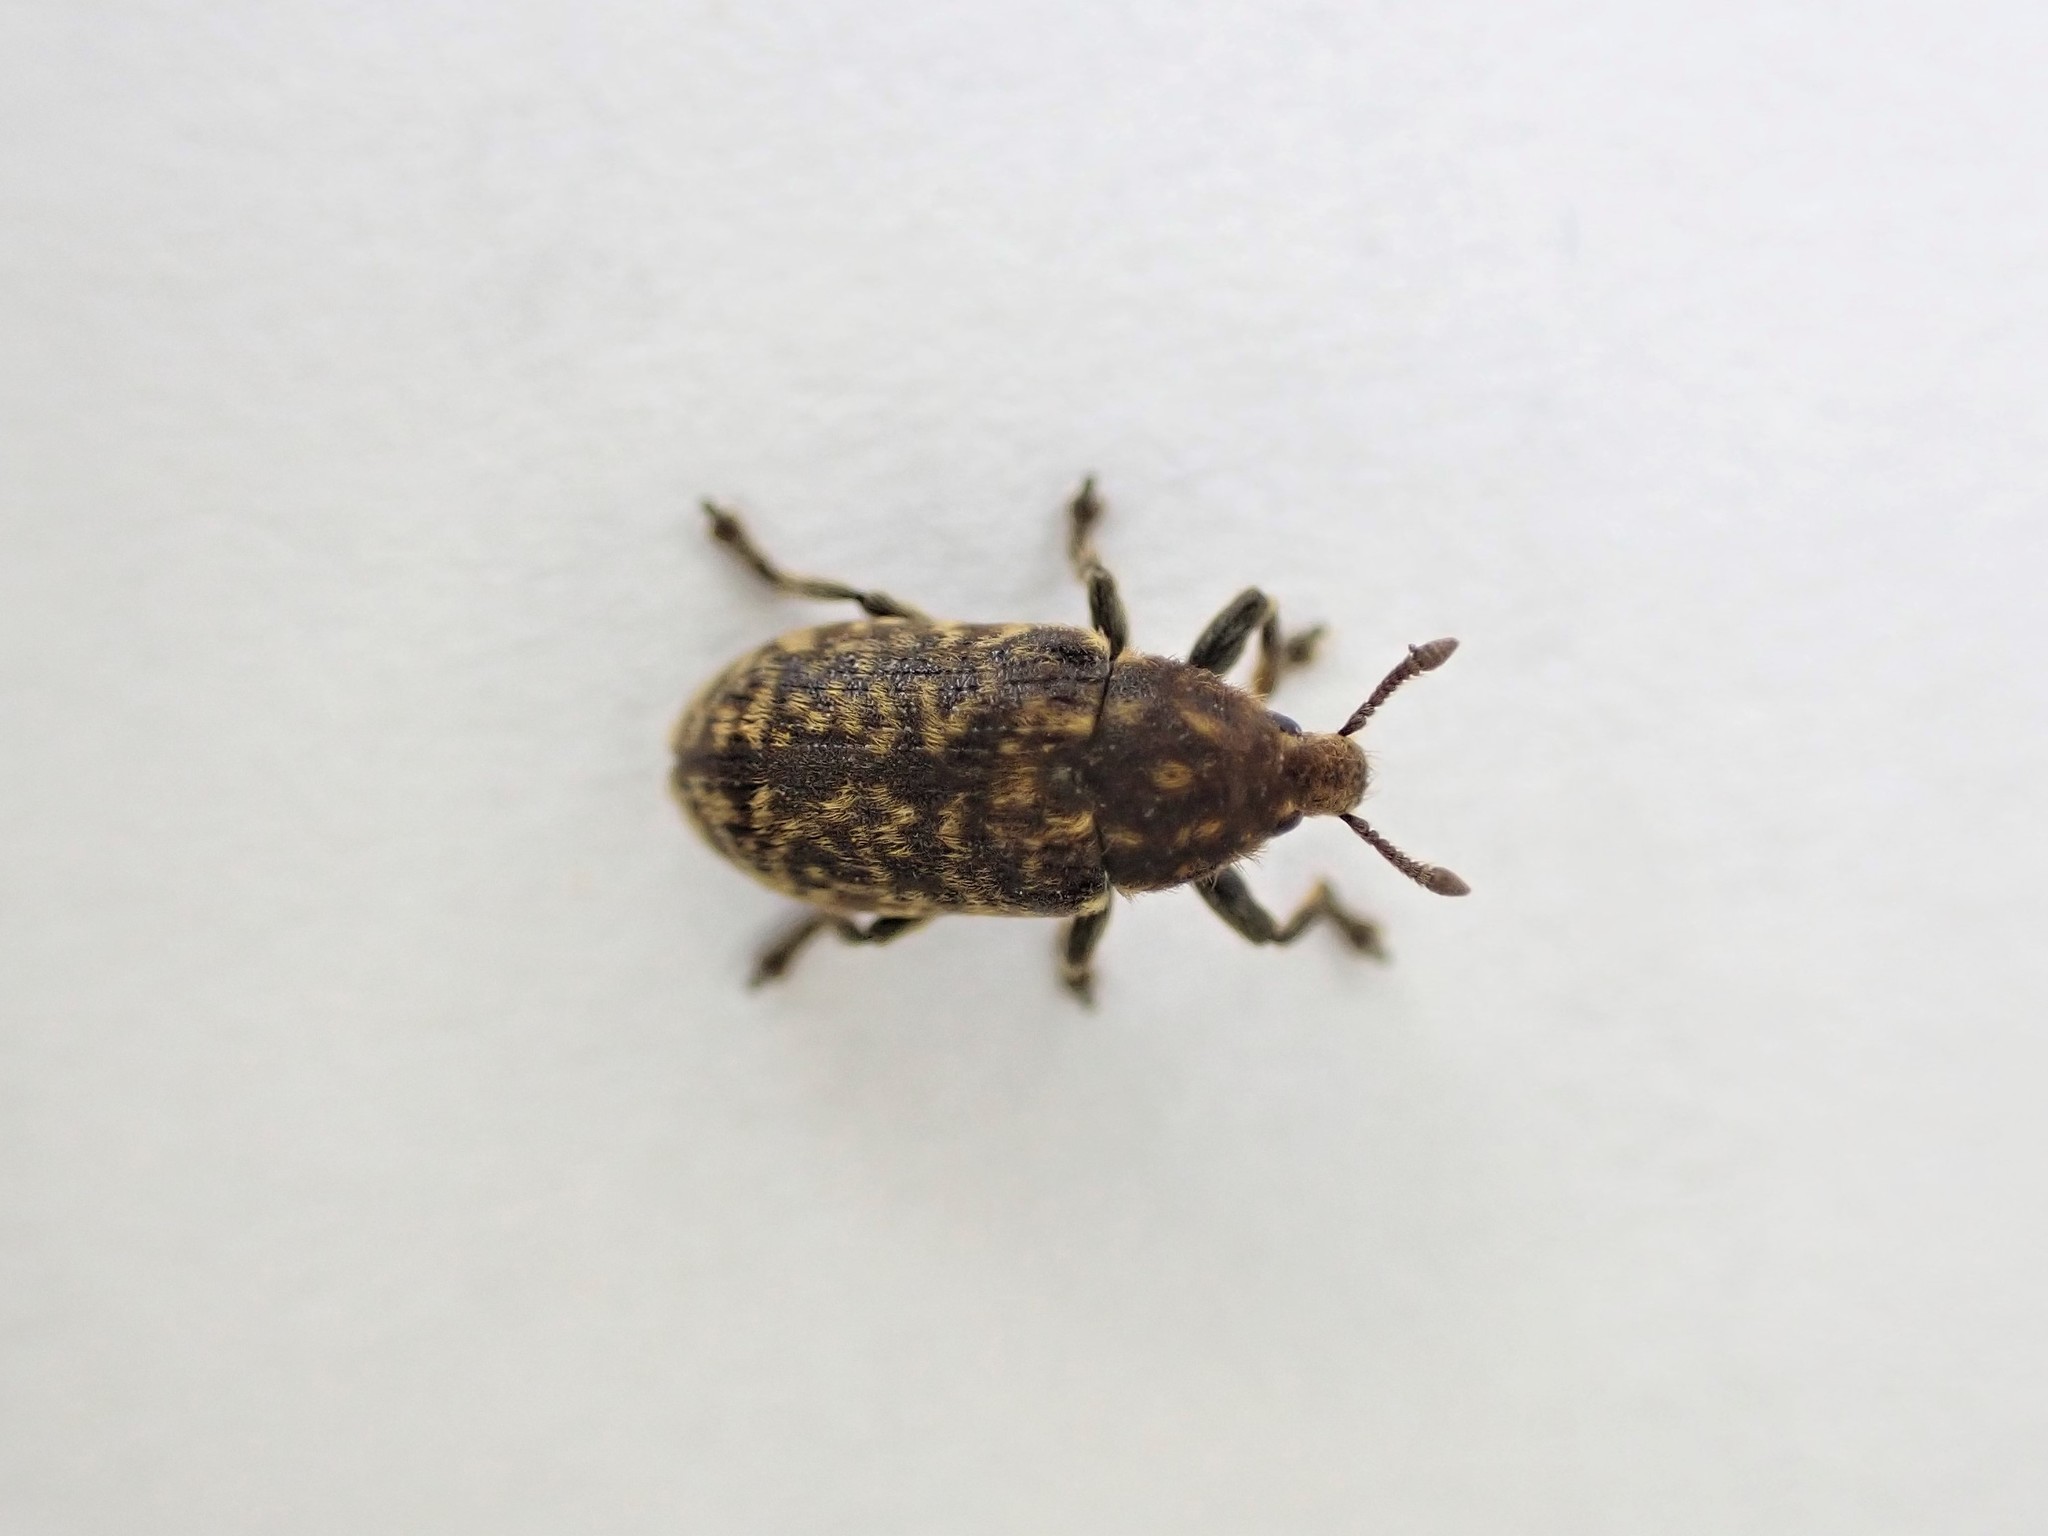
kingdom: Animalia
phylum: Arthropoda
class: Insecta
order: Coleoptera
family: Curculionidae
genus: Rhinocyllus
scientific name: Rhinocyllus conicus
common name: Weevil
